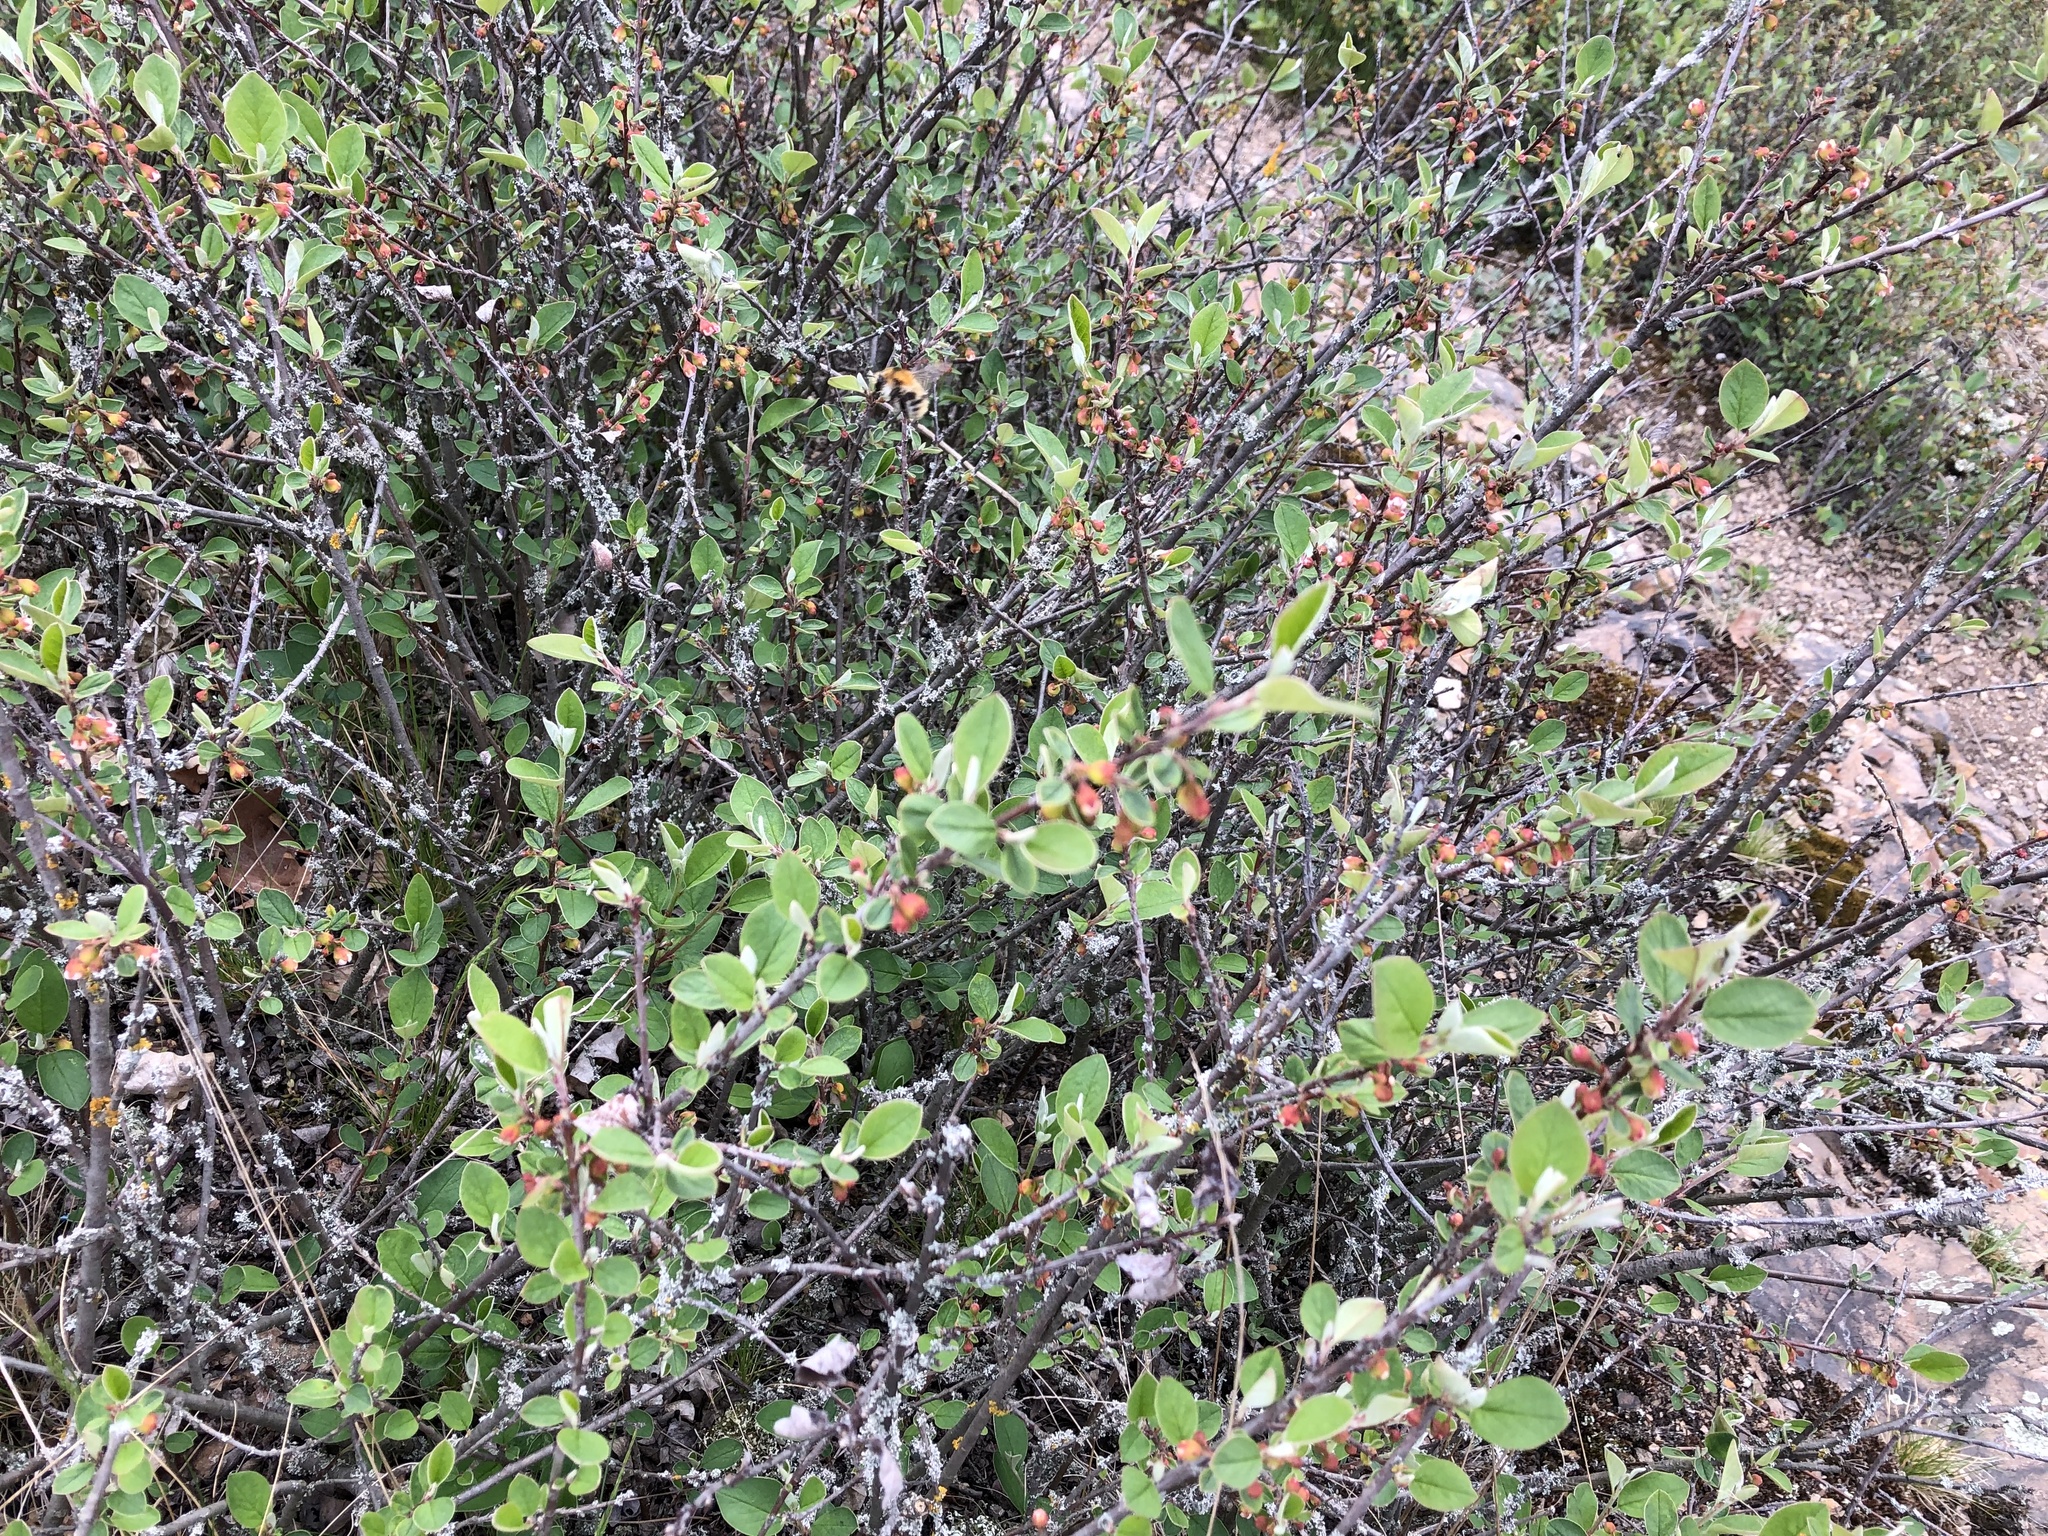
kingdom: Plantae
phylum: Tracheophyta
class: Magnoliopsida
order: Rosales
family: Rosaceae
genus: Cotoneaster
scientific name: Cotoneaster integerrimus
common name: Wild cotoneaster
